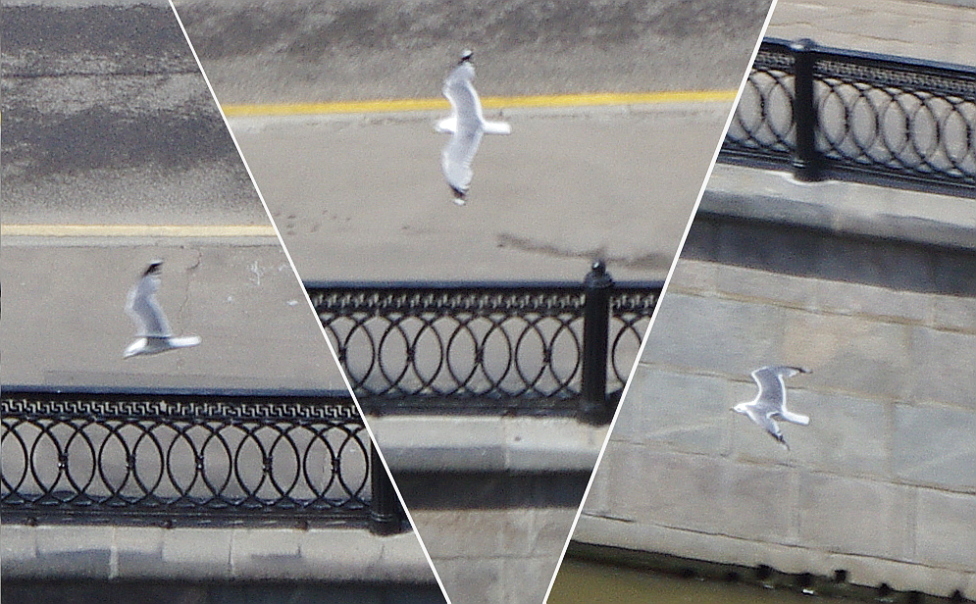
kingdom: Animalia
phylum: Chordata
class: Aves
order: Charadriiformes
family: Laridae
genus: Larus
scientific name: Larus canus
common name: Mew gull
